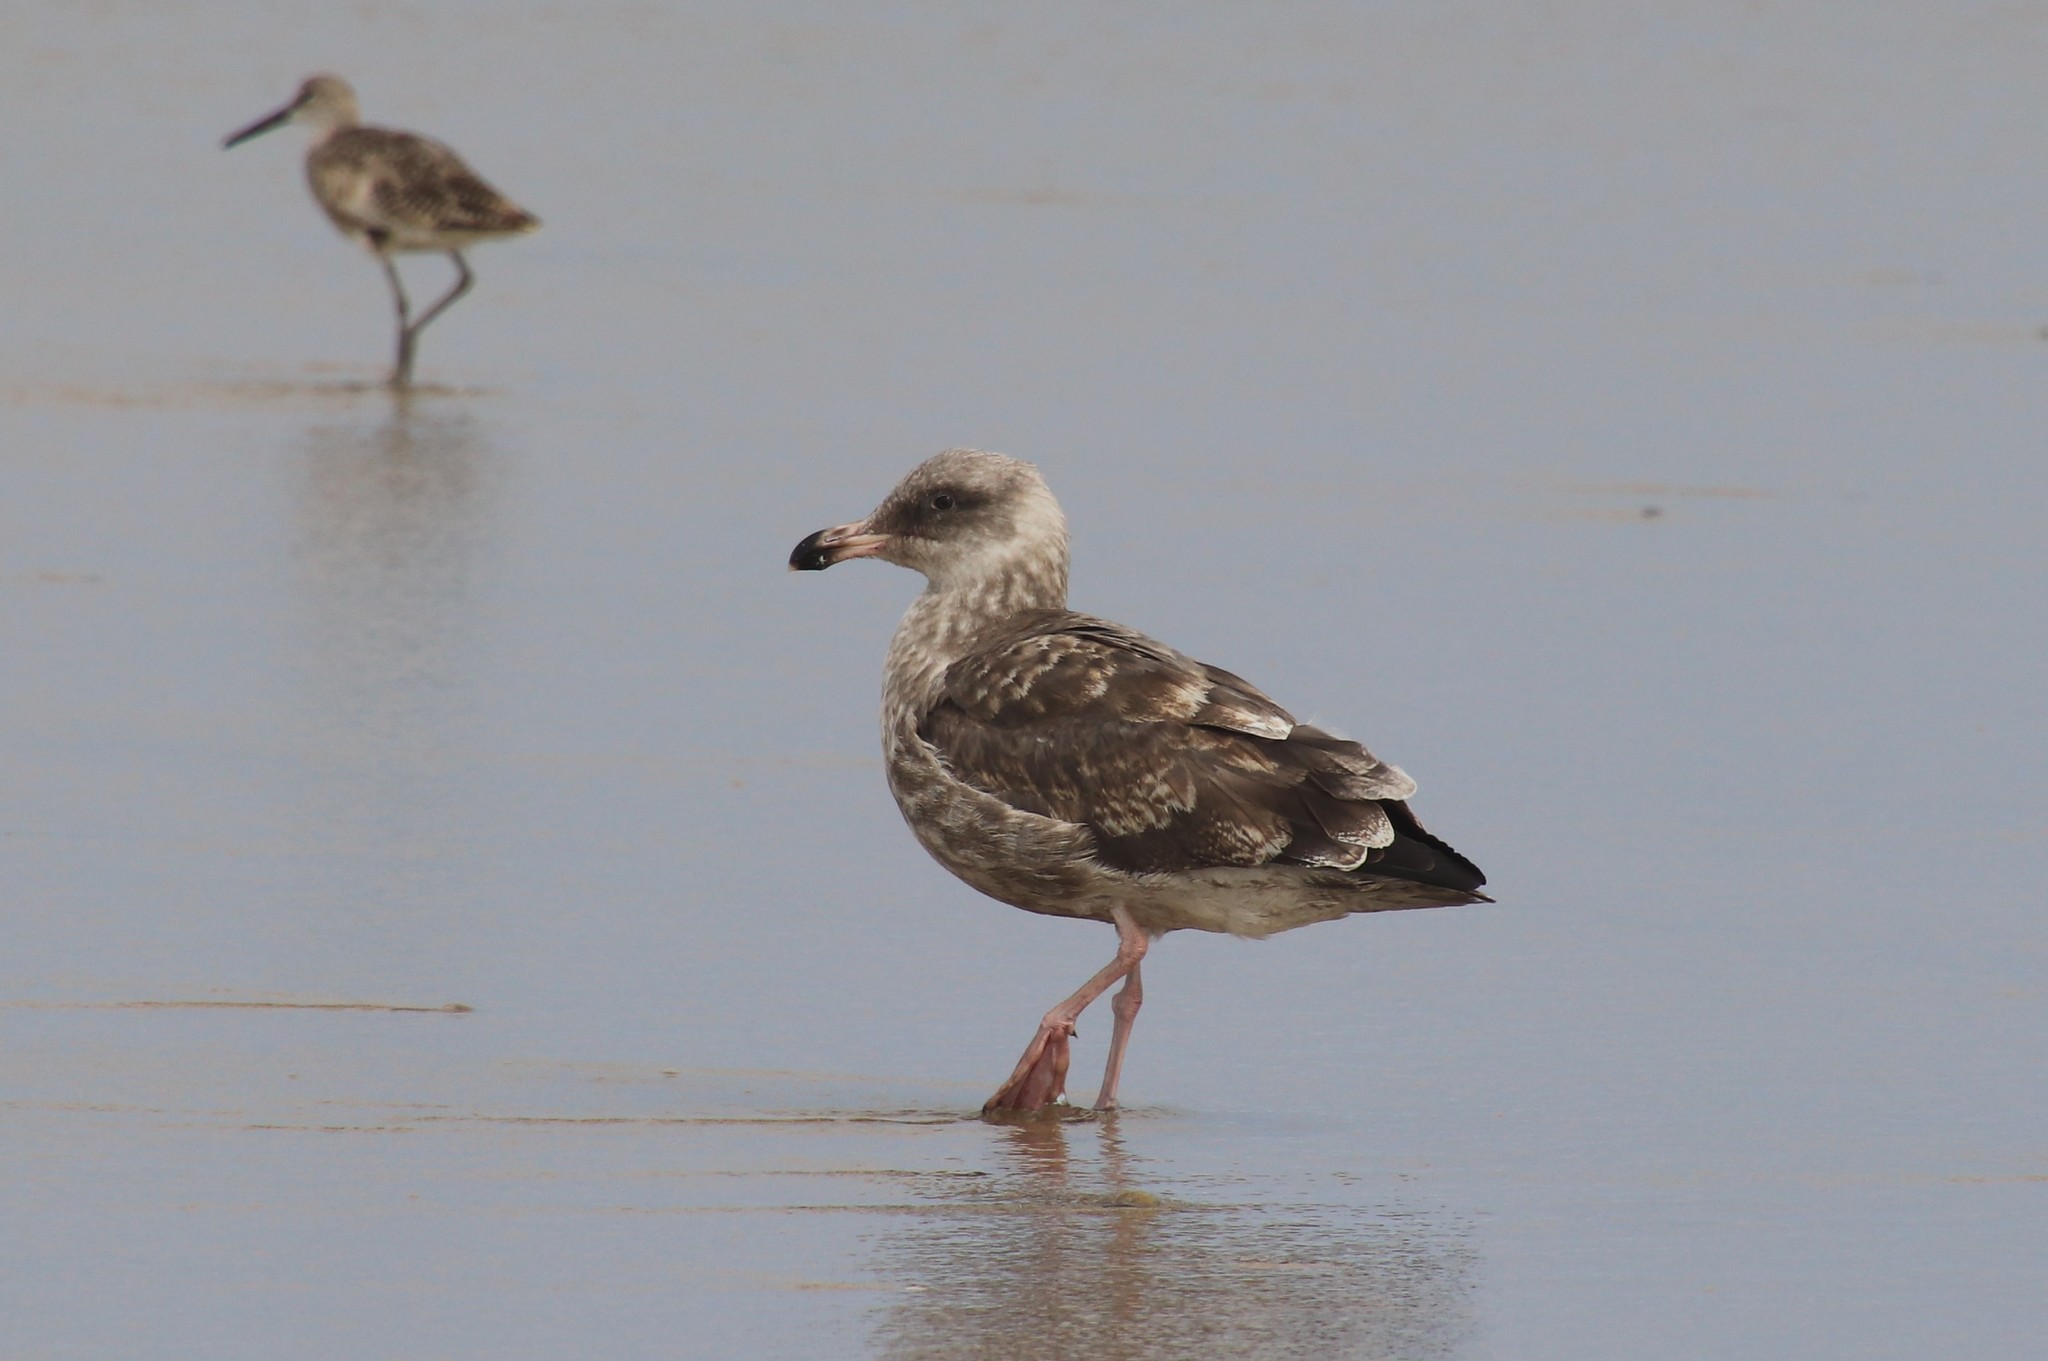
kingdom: Animalia
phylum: Chordata
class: Aves
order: Charadriiformes
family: Laridae
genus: Larus
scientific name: Larus occidentalis
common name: Western gull
